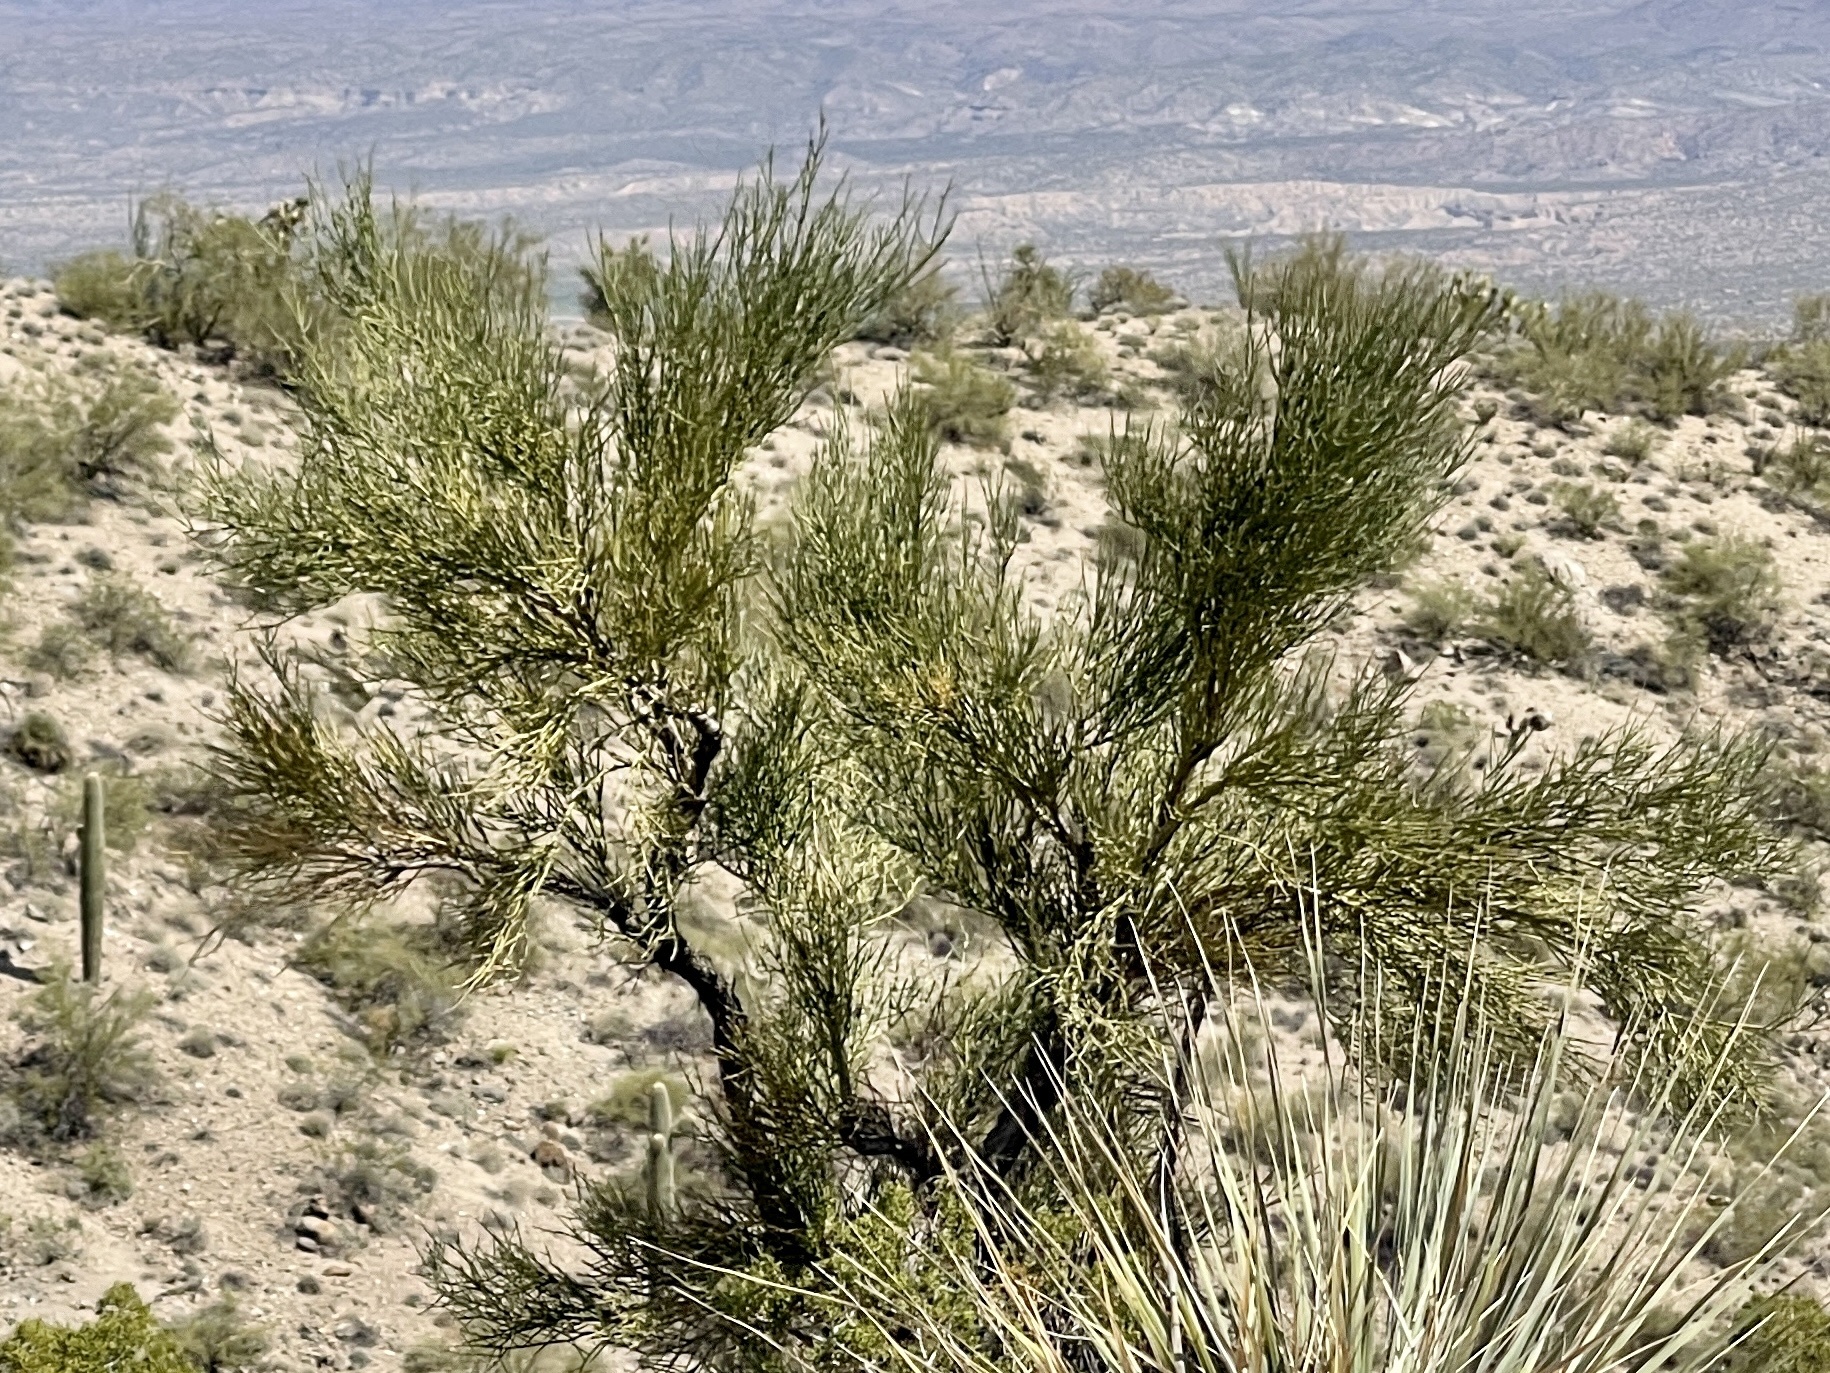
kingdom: Plantae
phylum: Tracheophyta
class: Magnoliopsida
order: Celastrales
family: Celastraceae
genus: Canotia
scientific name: Canotia holacantha
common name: Crucifixion thorns
